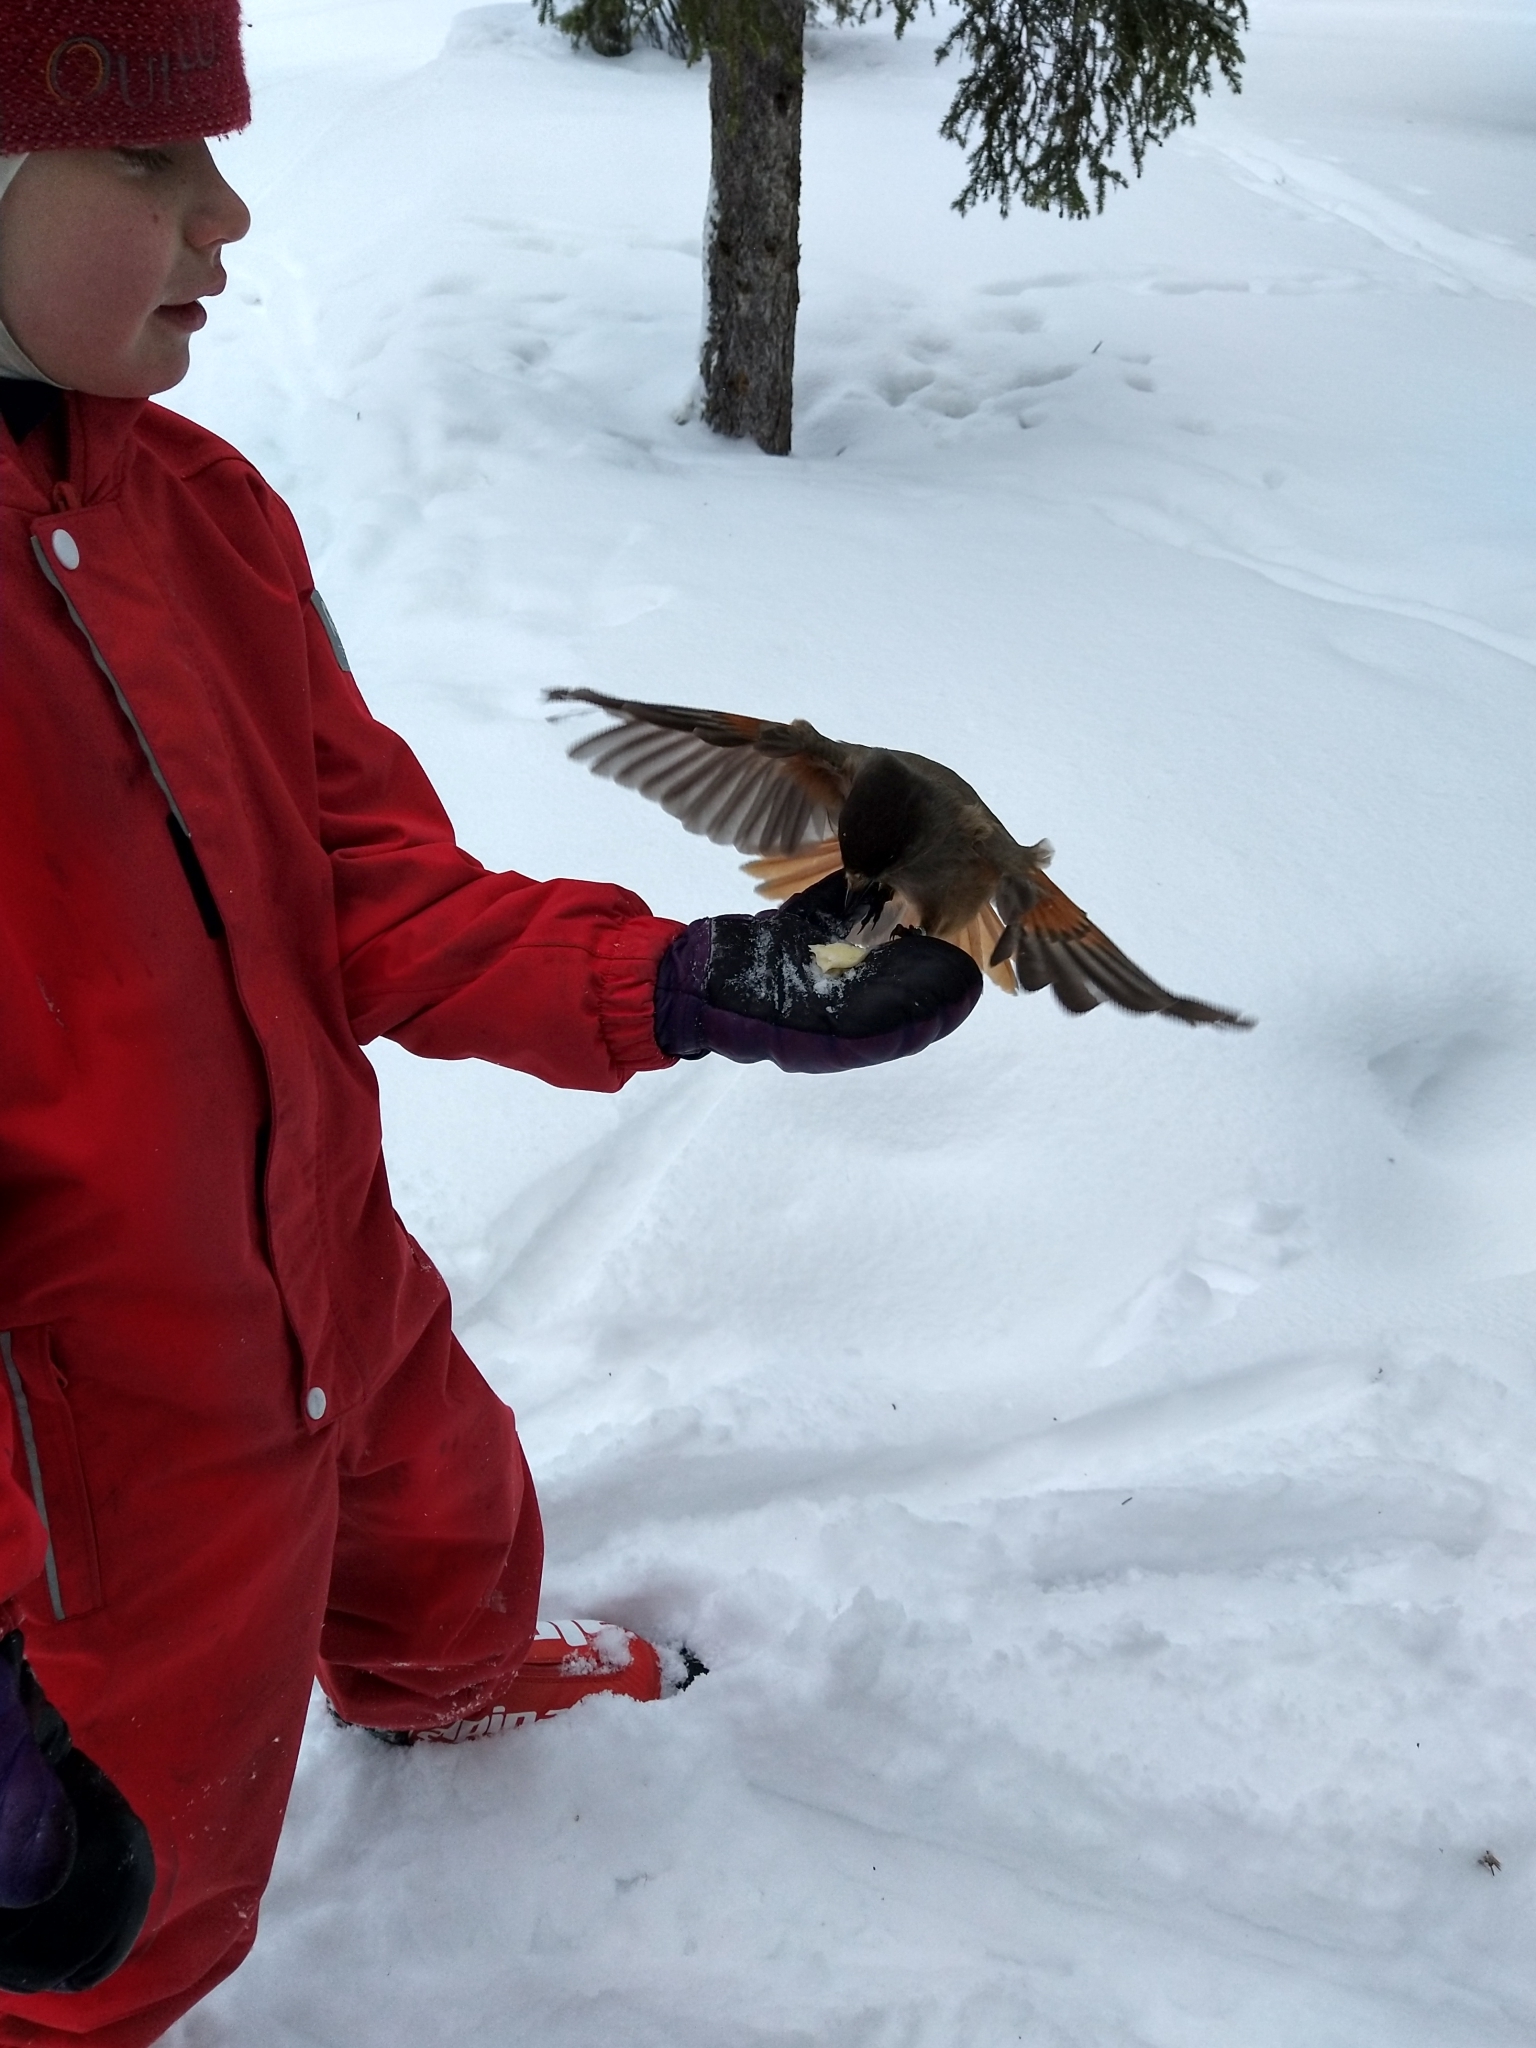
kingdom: Animalia
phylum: Chordata
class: Aves
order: Passeriformes
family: Corvidae
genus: Perisoreus
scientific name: Perisoreus infaustus
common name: Siberian jay
